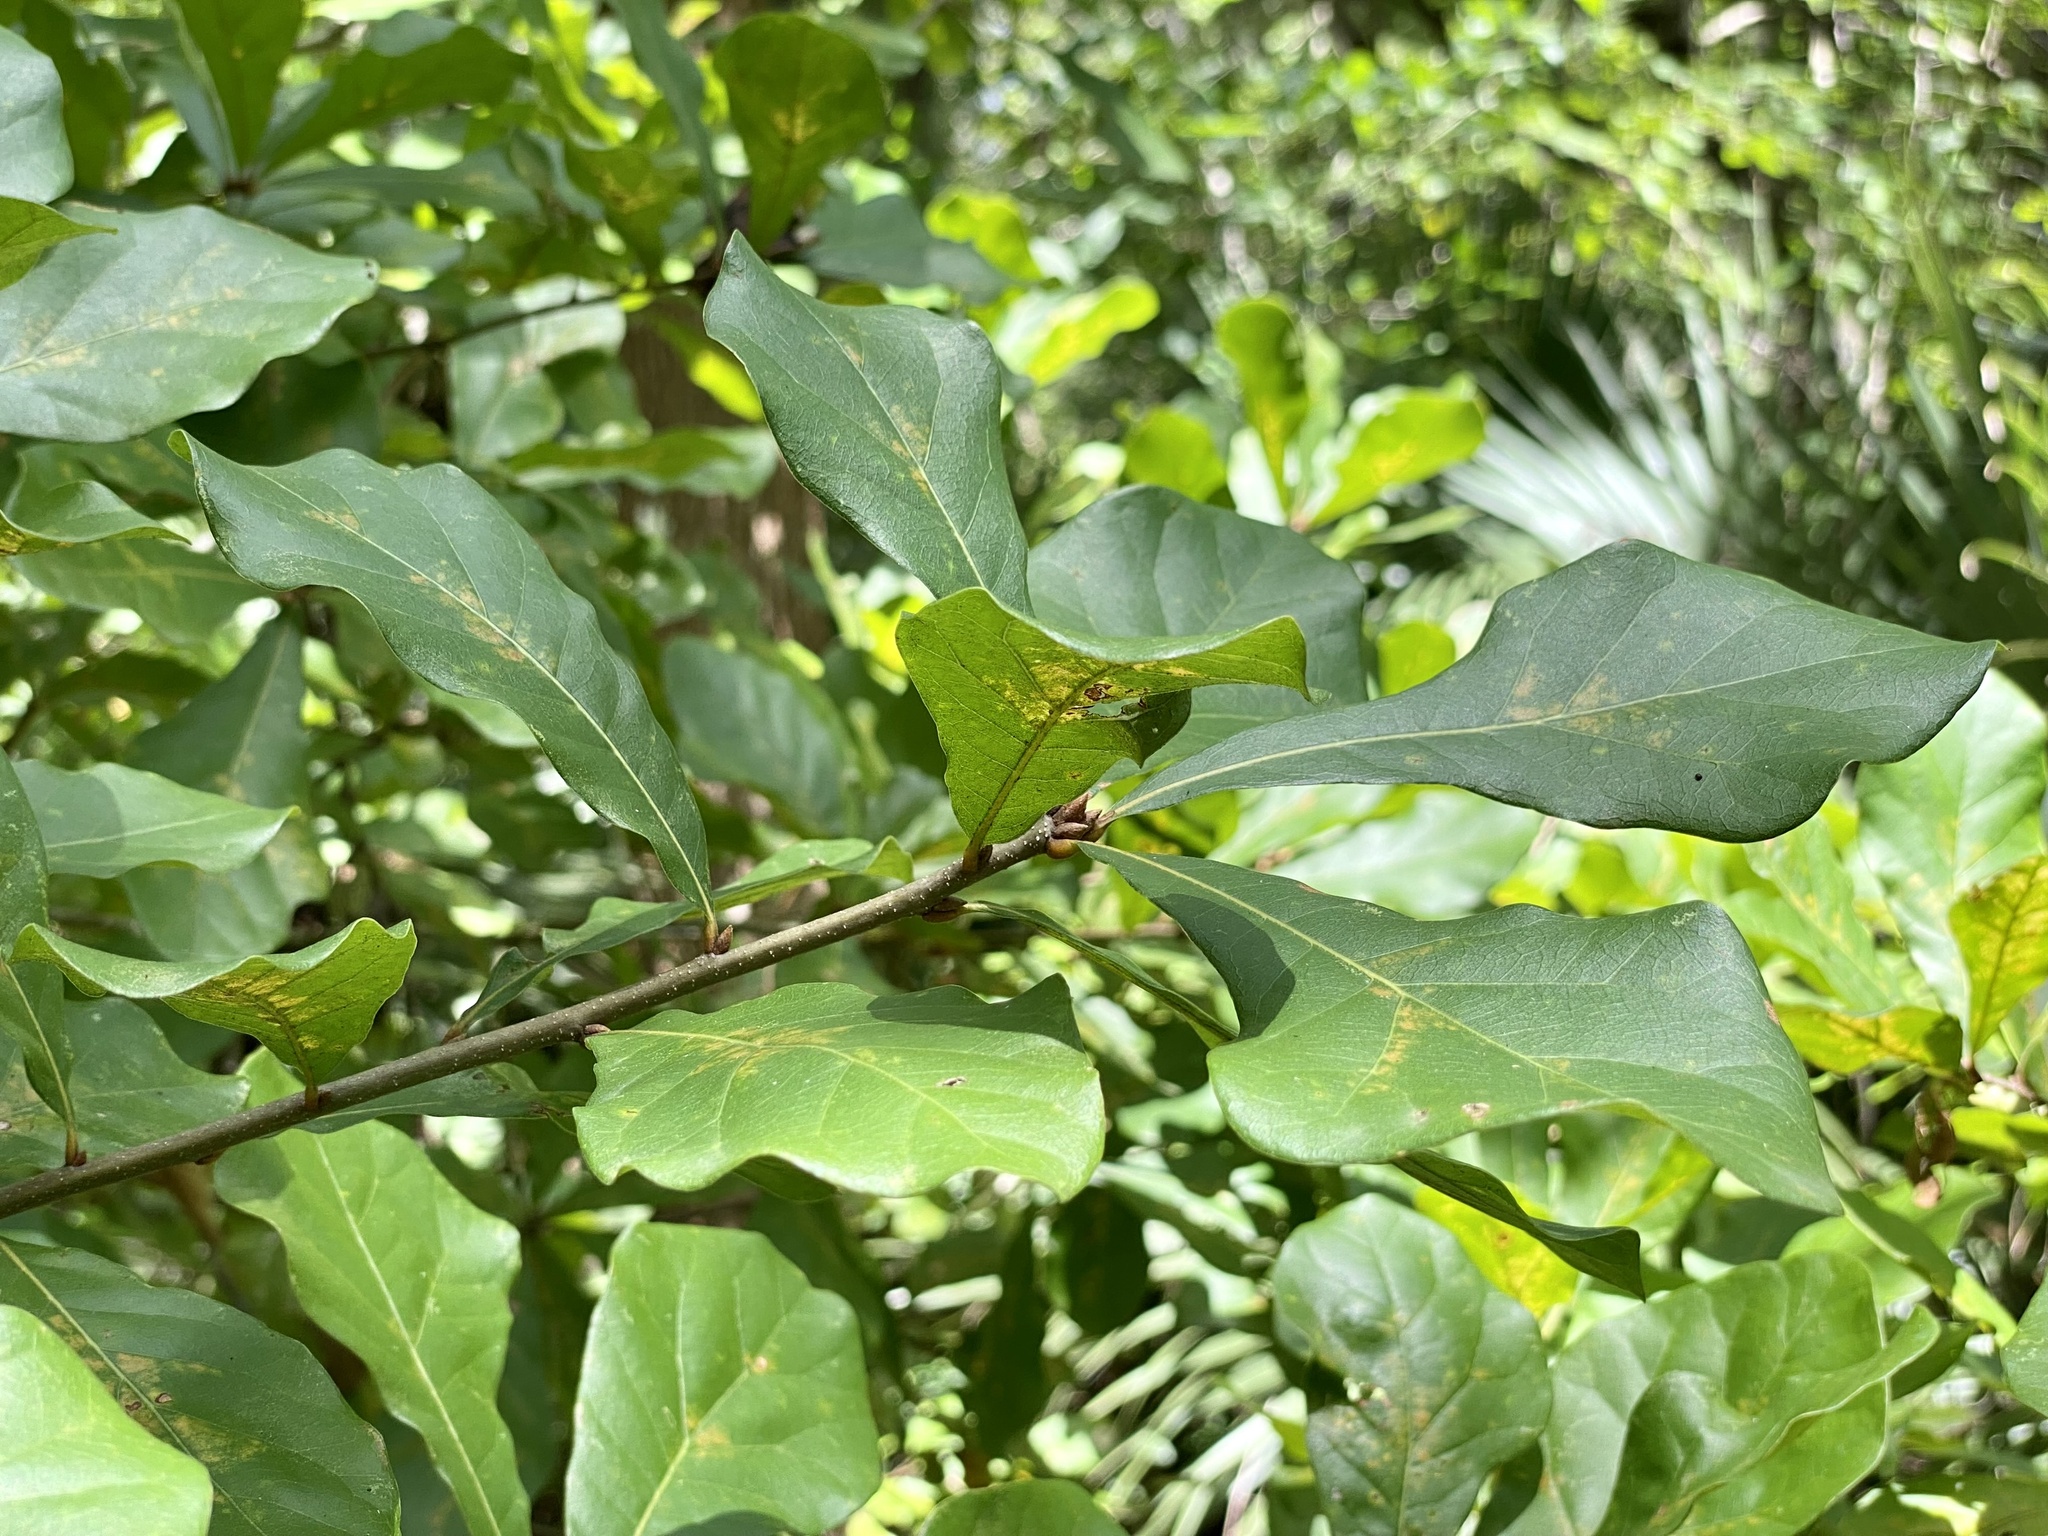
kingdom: Plantae
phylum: Tracheophyta
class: Magnoliopsida
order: Fagales
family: Fagaceae
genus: Quercus
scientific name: Quercus nigra
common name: Water oak
